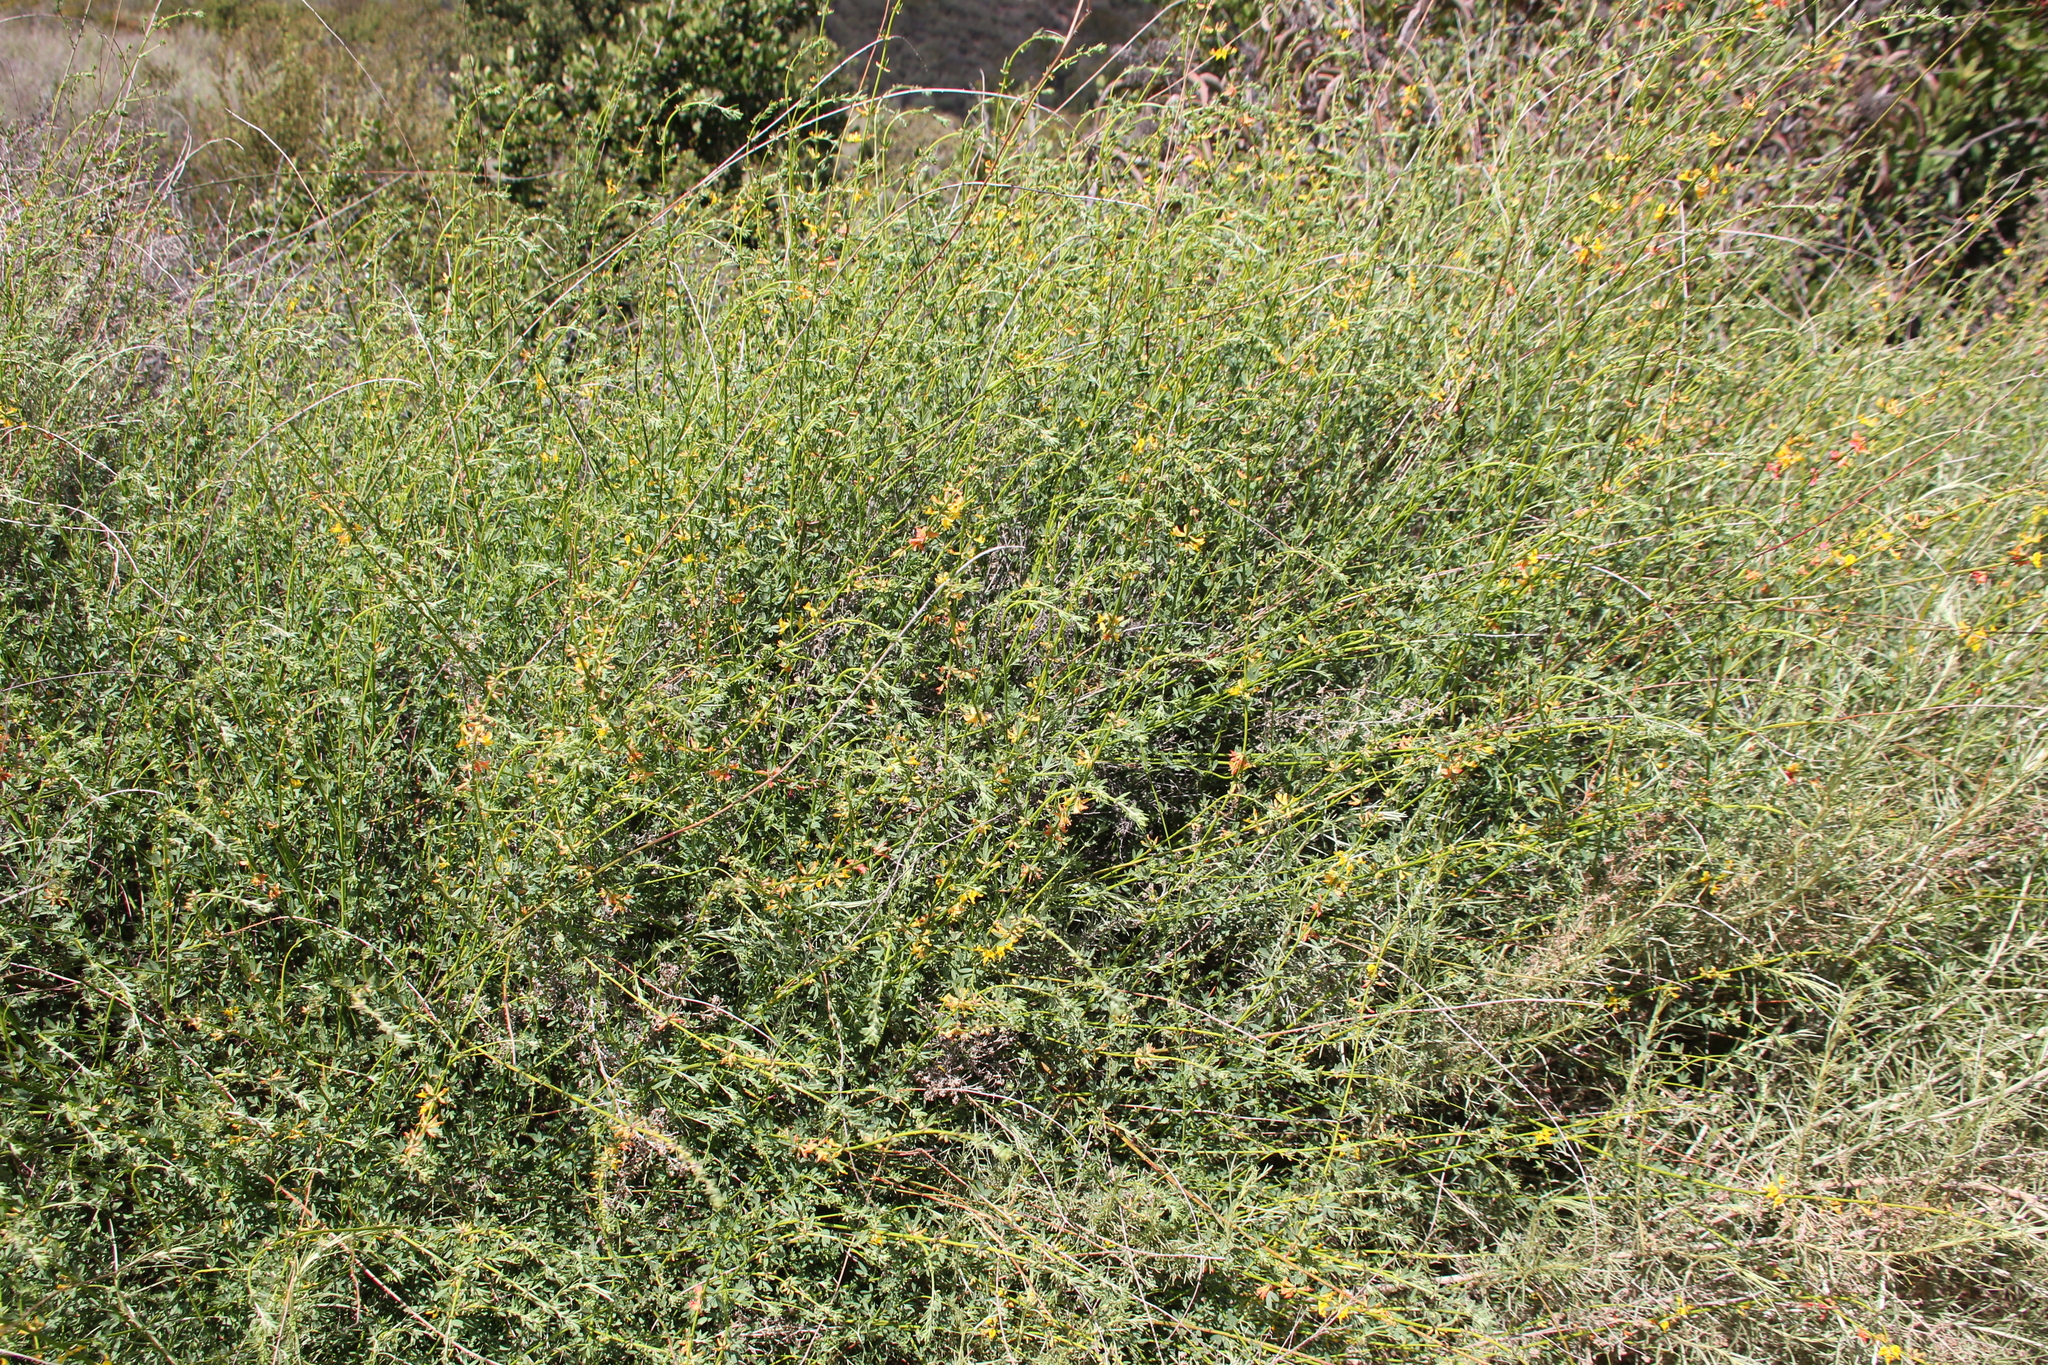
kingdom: Plantae
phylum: Tracheophyta
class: Magnoliopsida
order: Fabales
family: Fabaceae
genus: Acmispon
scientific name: Acmispon glaber
